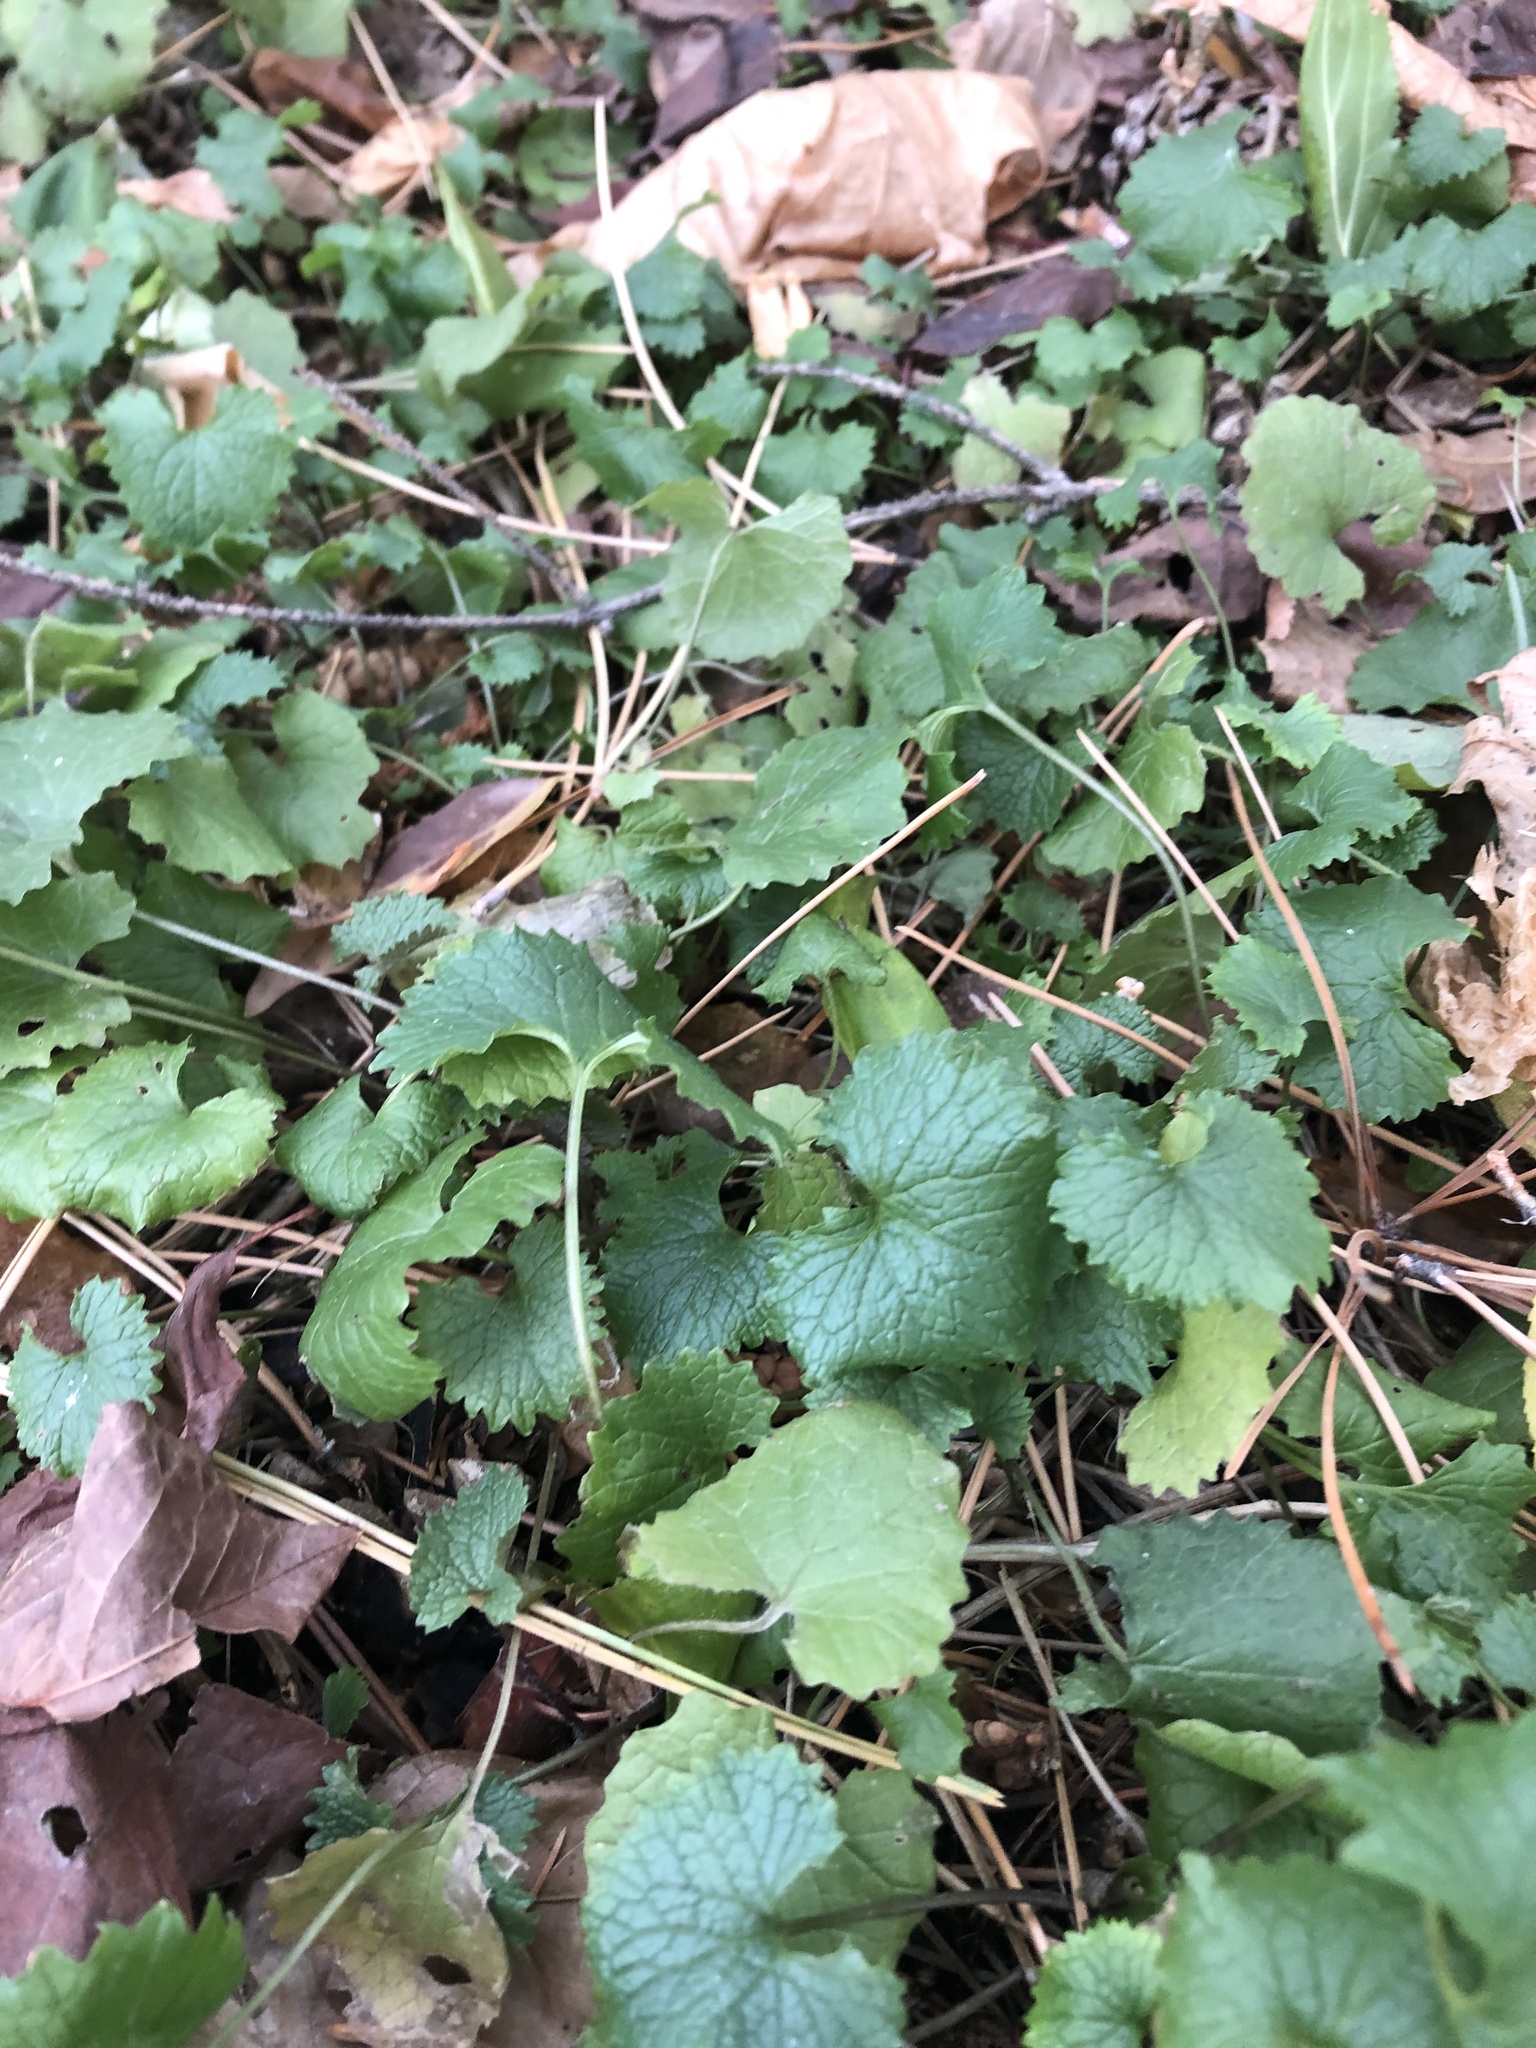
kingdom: Plantae
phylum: Tracheophyta
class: Magnoliopsida
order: Brassicales
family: Brassicaceae
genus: Alliaria
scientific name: Alliaria petiolata
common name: Garlic mustard
